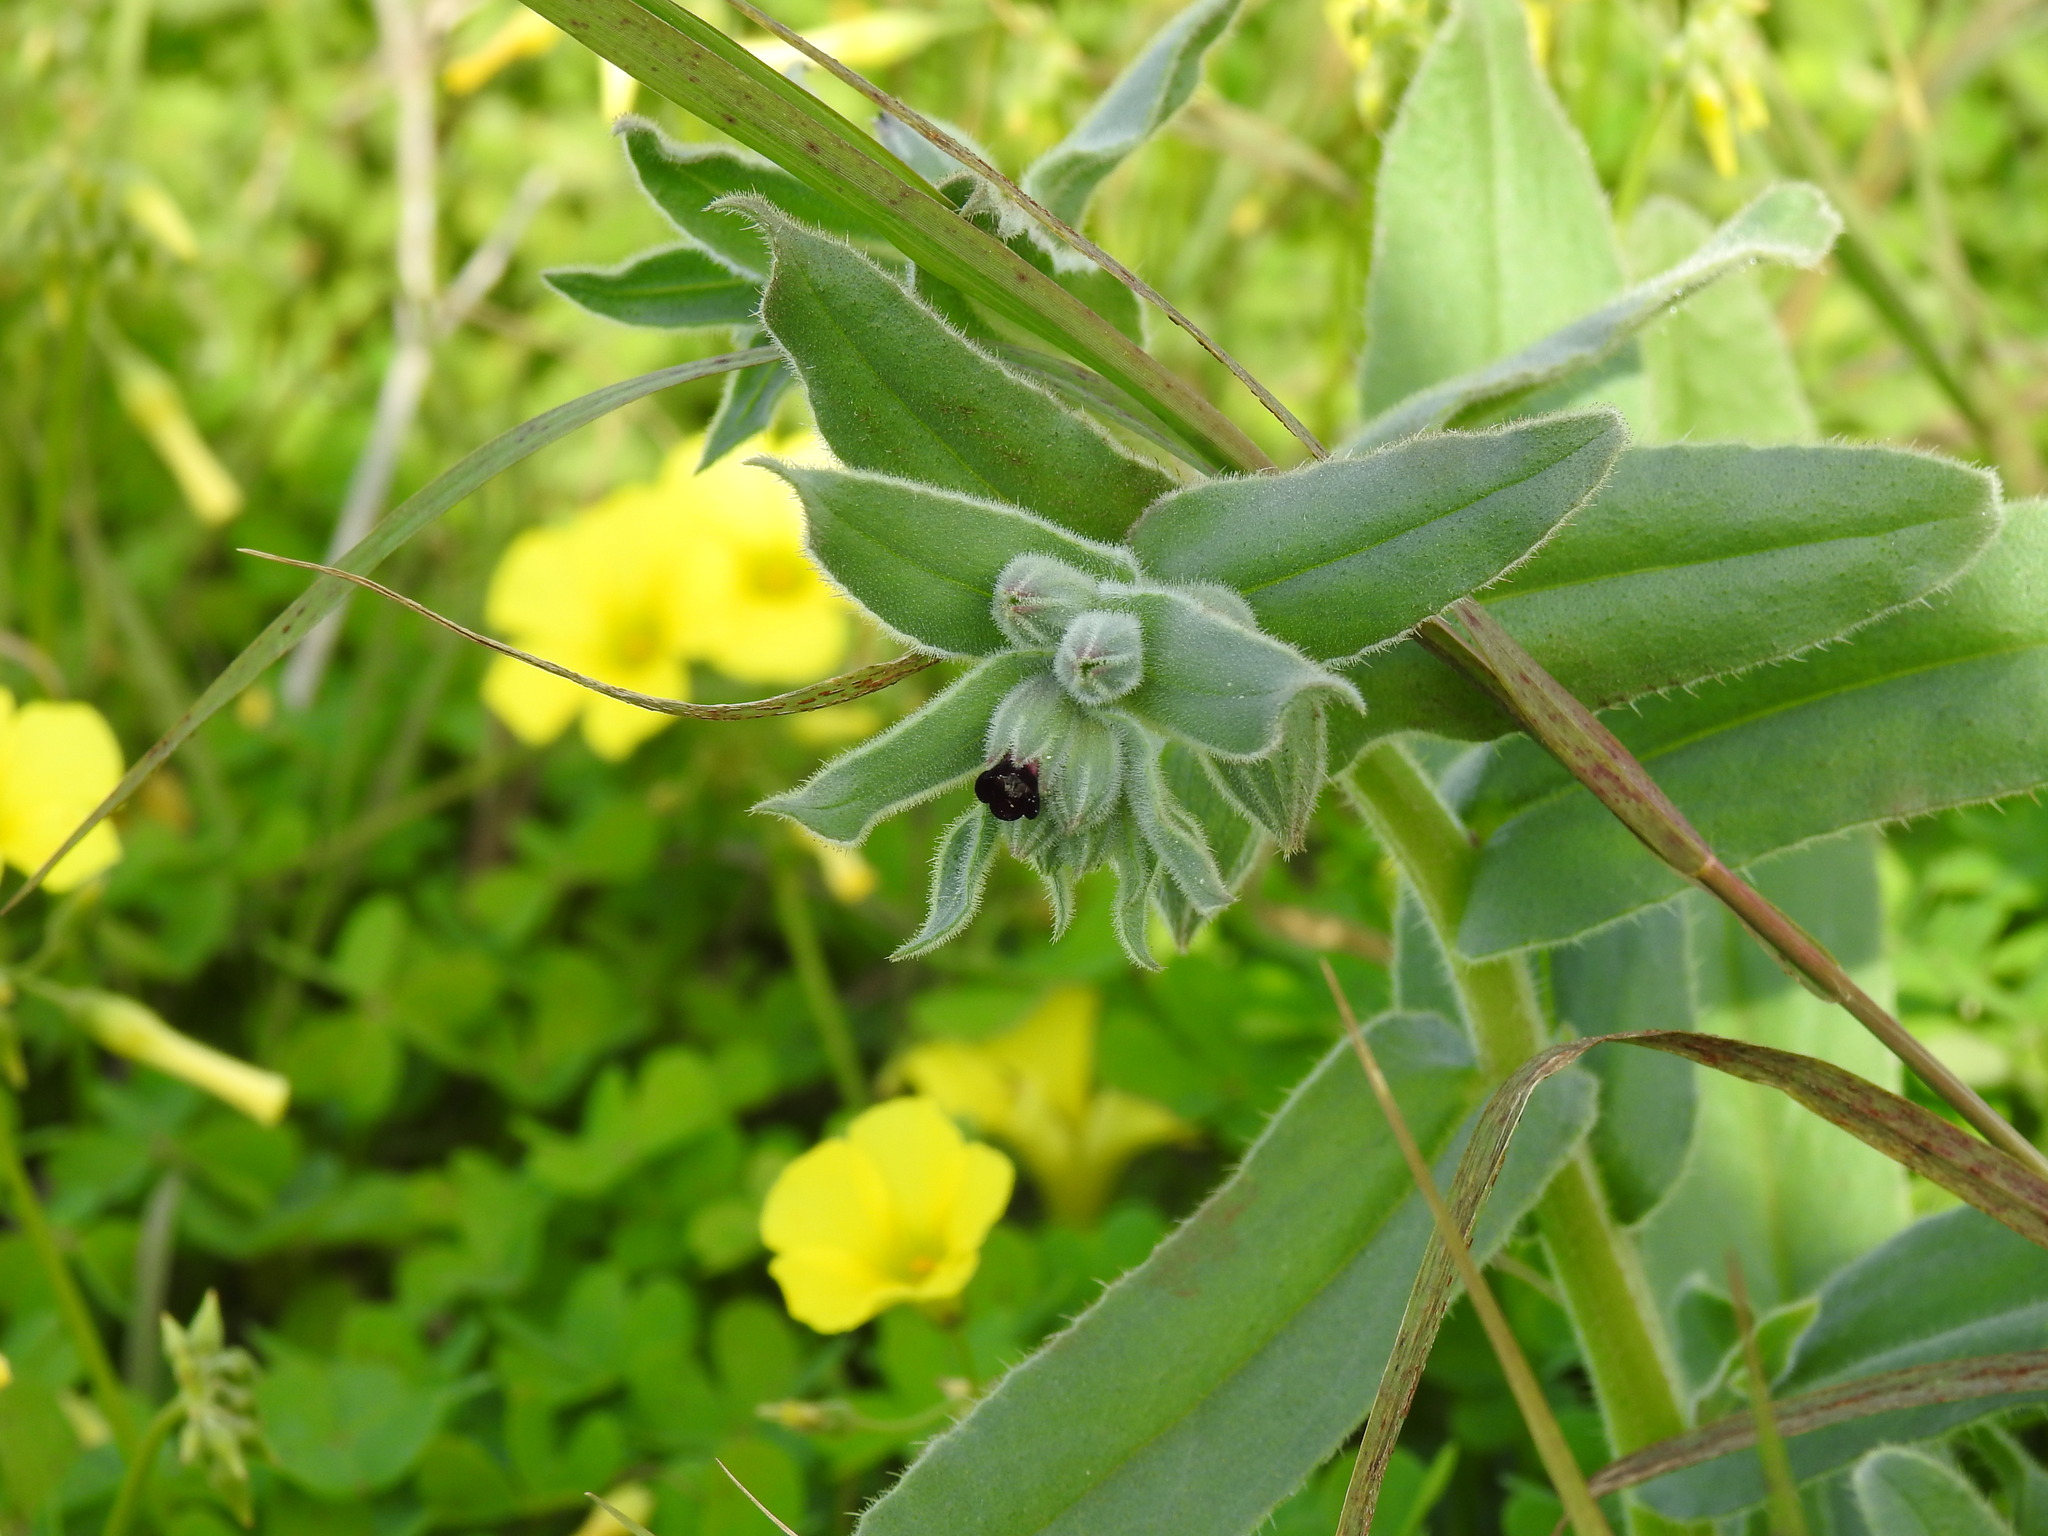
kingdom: Plantae
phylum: Tracheophyta
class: Magnoliopsida
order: Boraginales
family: Boraginaceae
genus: Nonea
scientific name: Nonea vesicaria
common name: Red monkswort
